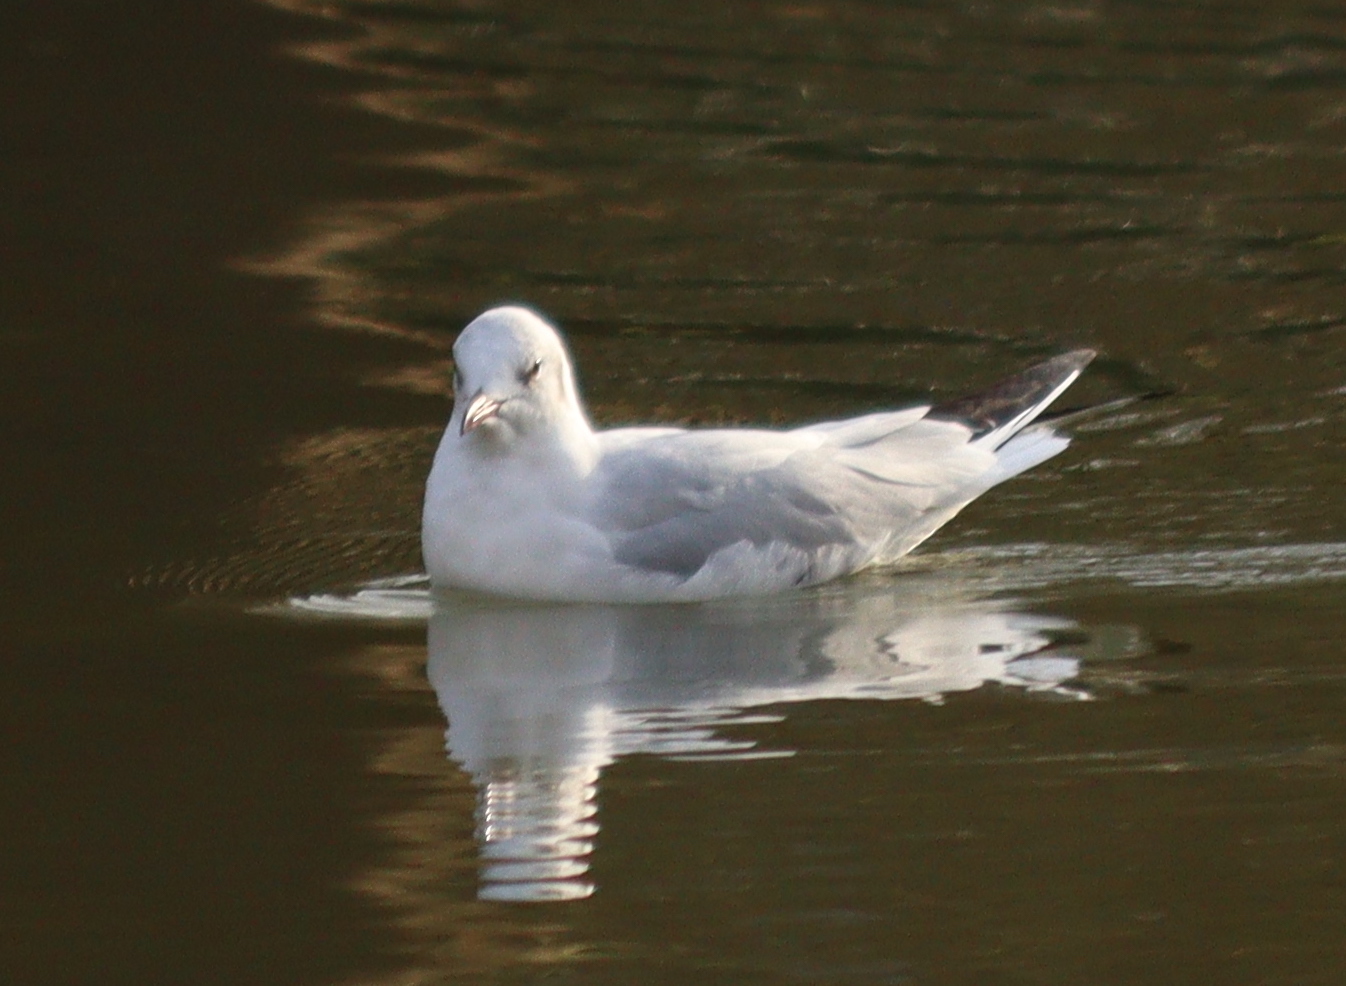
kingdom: Animalia
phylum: Chordata
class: Aves
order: Charadriiformes
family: Laridae
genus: Chroicocephalus
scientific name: Chroicocephalus ridibundus
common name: Black-headed gull
